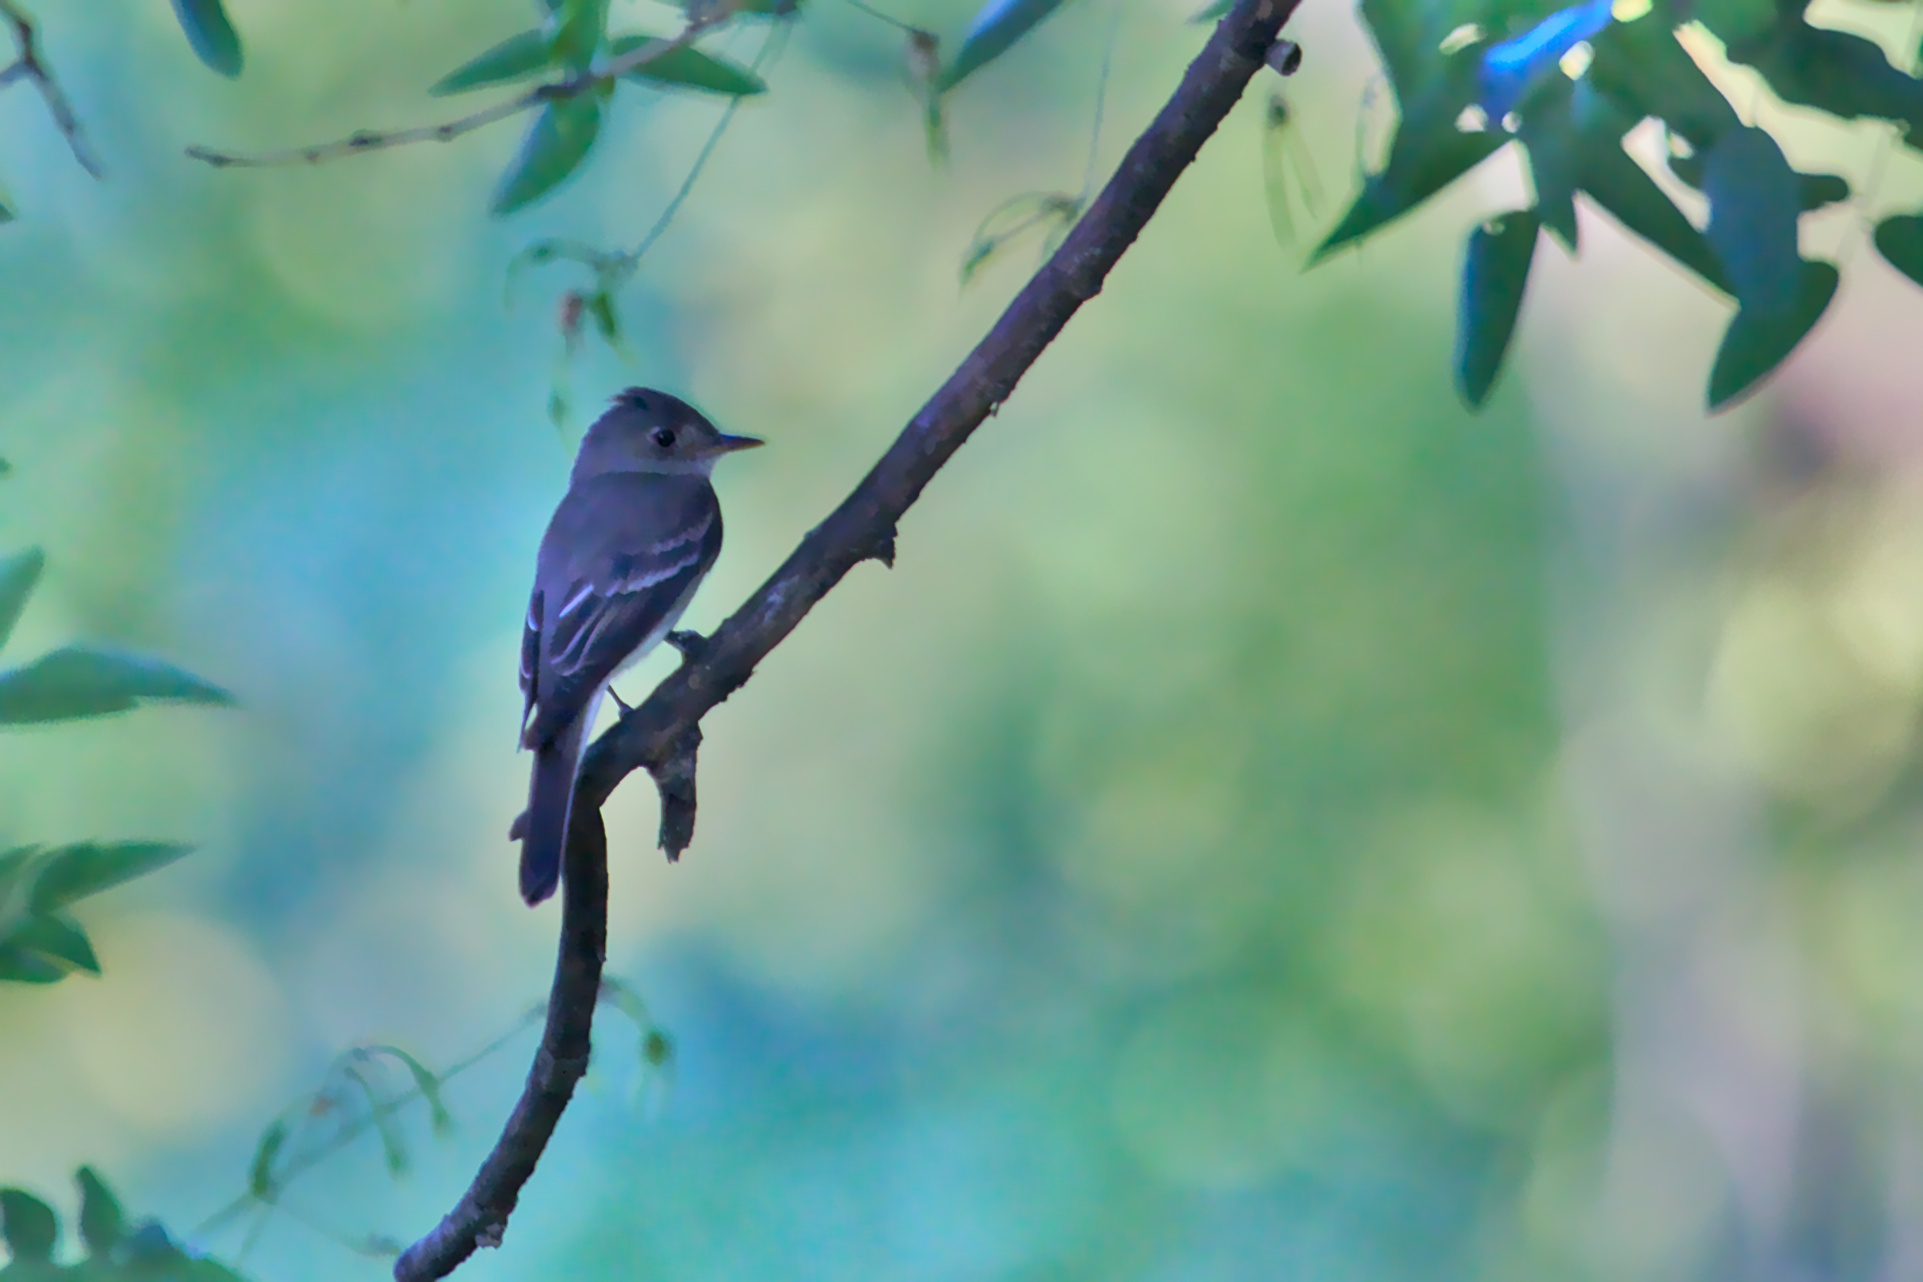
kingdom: Animalia
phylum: Chordata
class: Aves
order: Passeriformes
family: Tyrannidae
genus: Contopus
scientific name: Contopus virens
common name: Eastern wood-pewee
